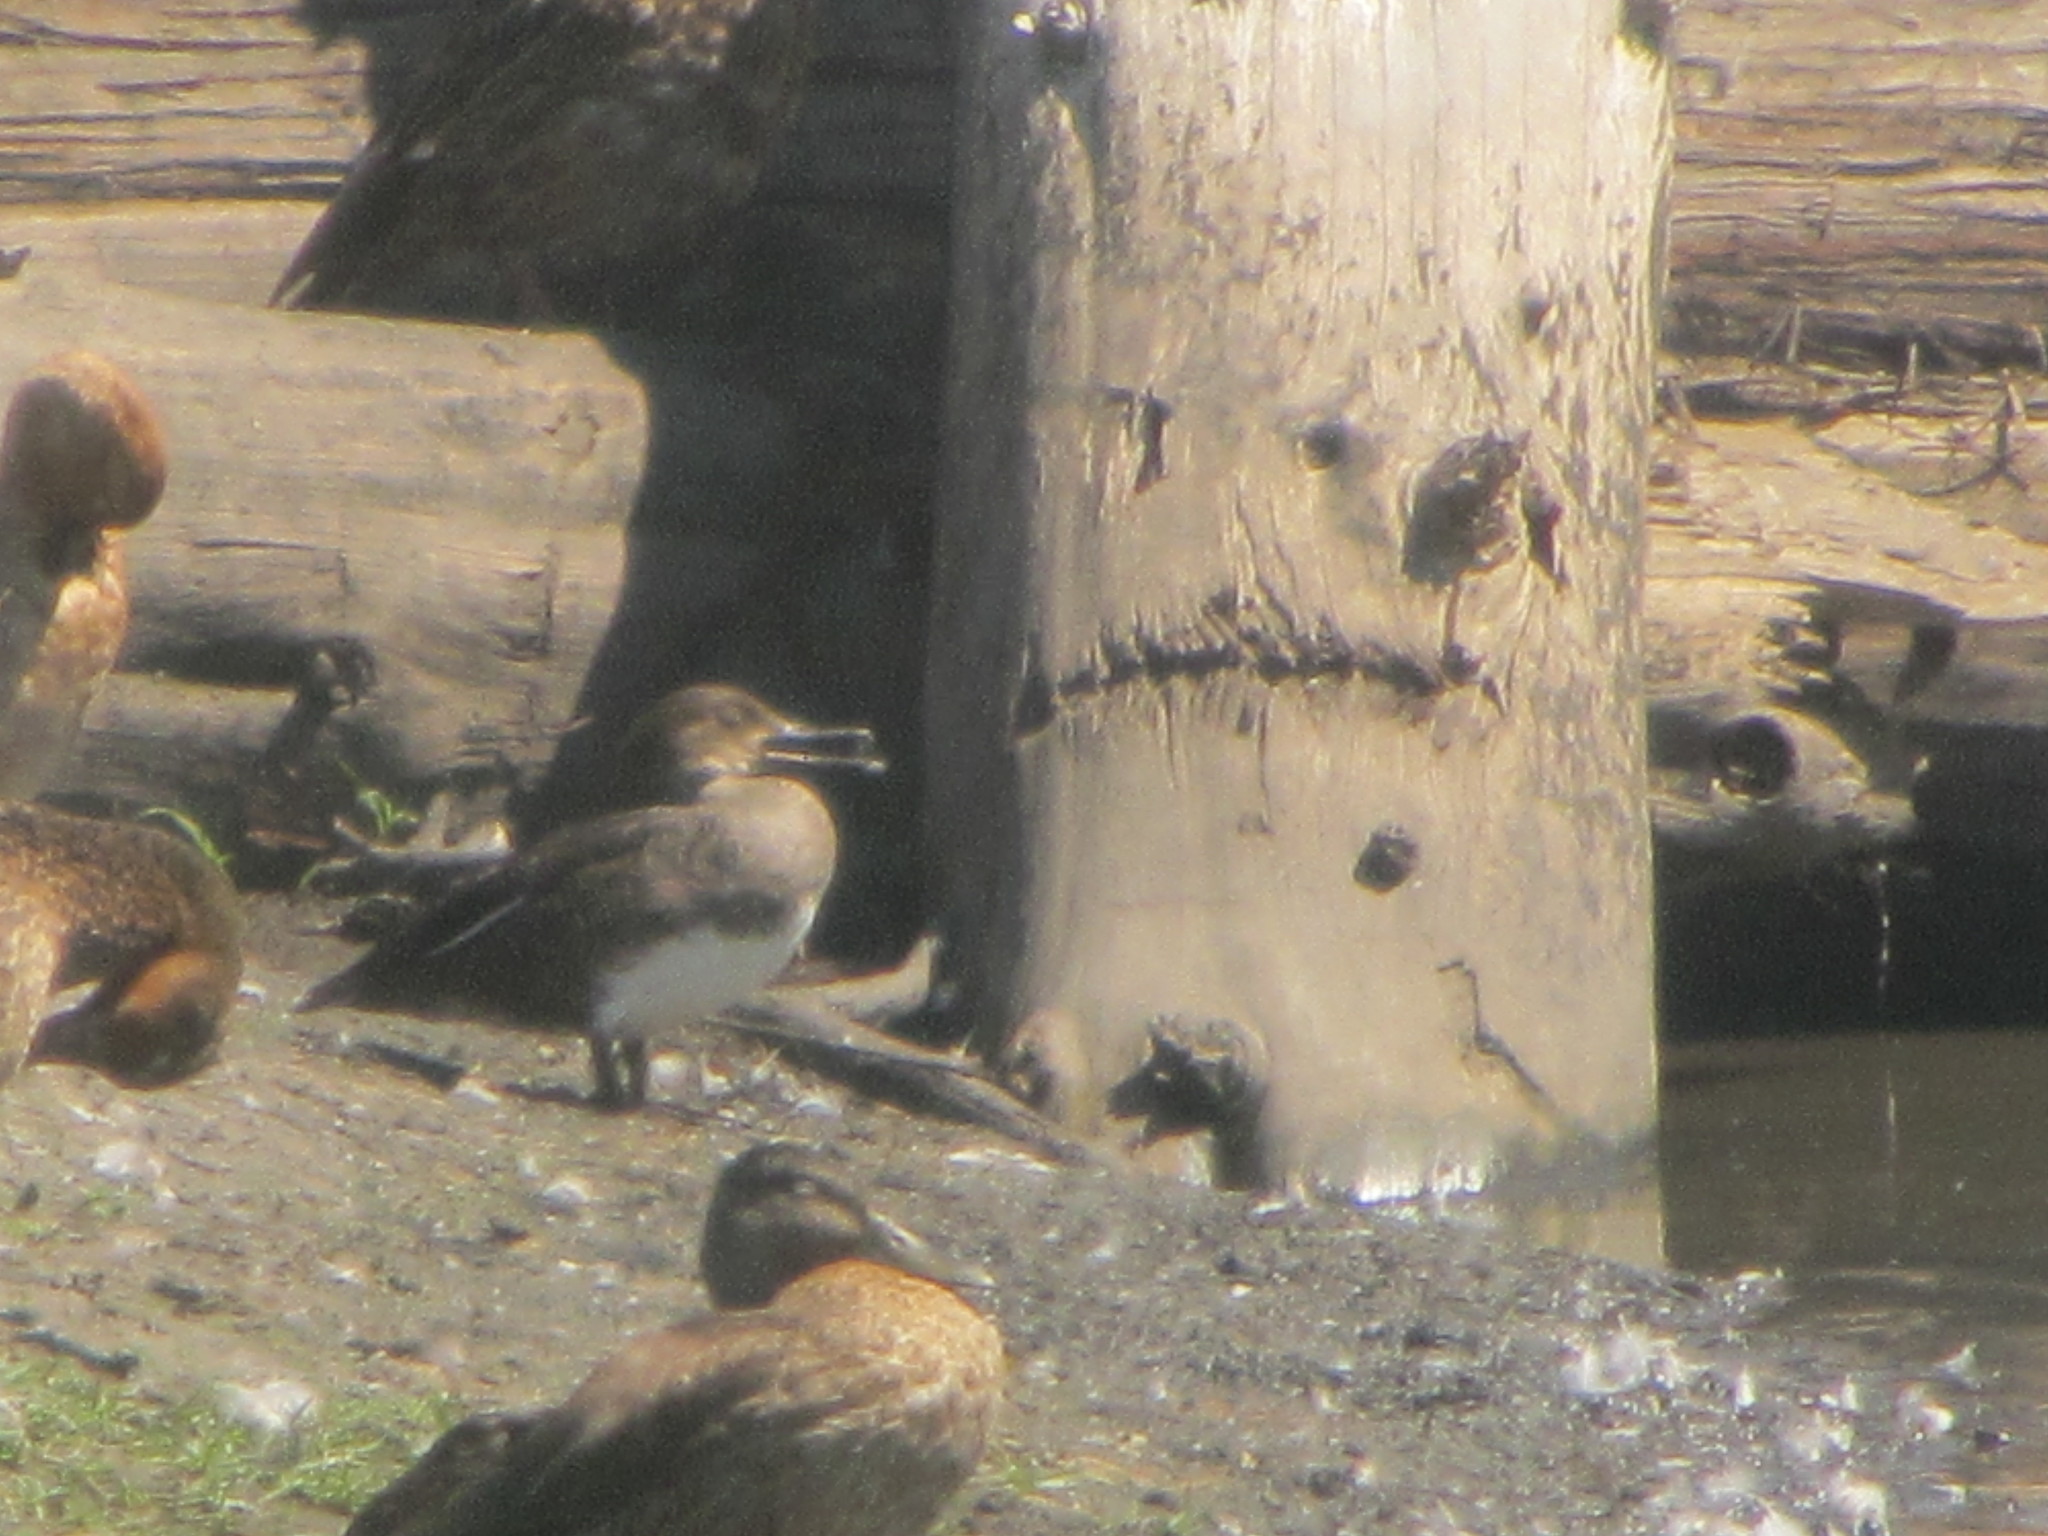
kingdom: Animalia
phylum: Chordata
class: Aves
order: Anseriformes
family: Anatidae
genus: Lophodytes
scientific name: Lophodytes cucullatus
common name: Hooded merganser
